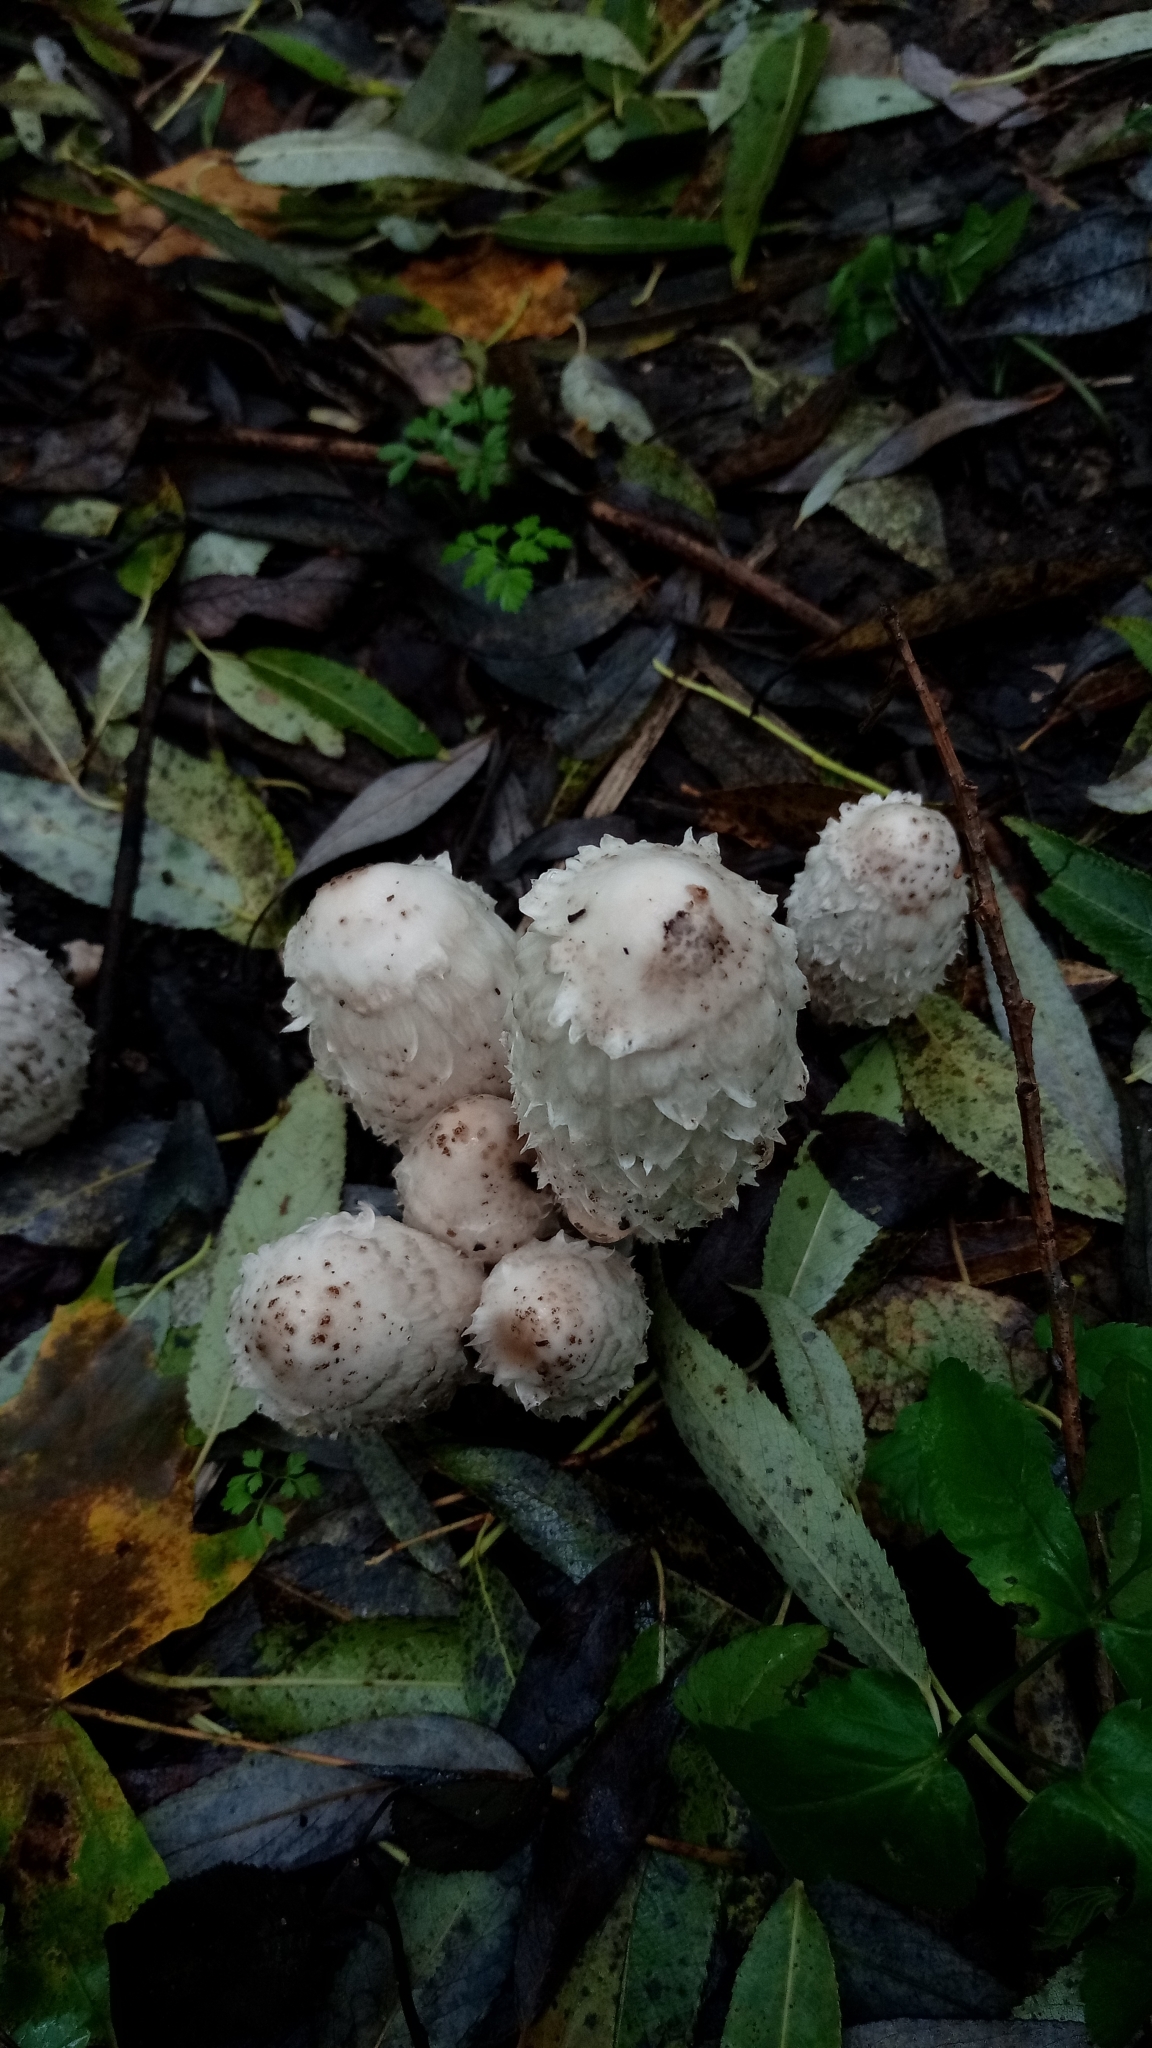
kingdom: Fungi
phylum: Basidiomycota
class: Agaricomycetes
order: Agaricales
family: Agaricaceae
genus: Coprinus
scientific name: Coprinus comatus
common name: Lawyer's wig
